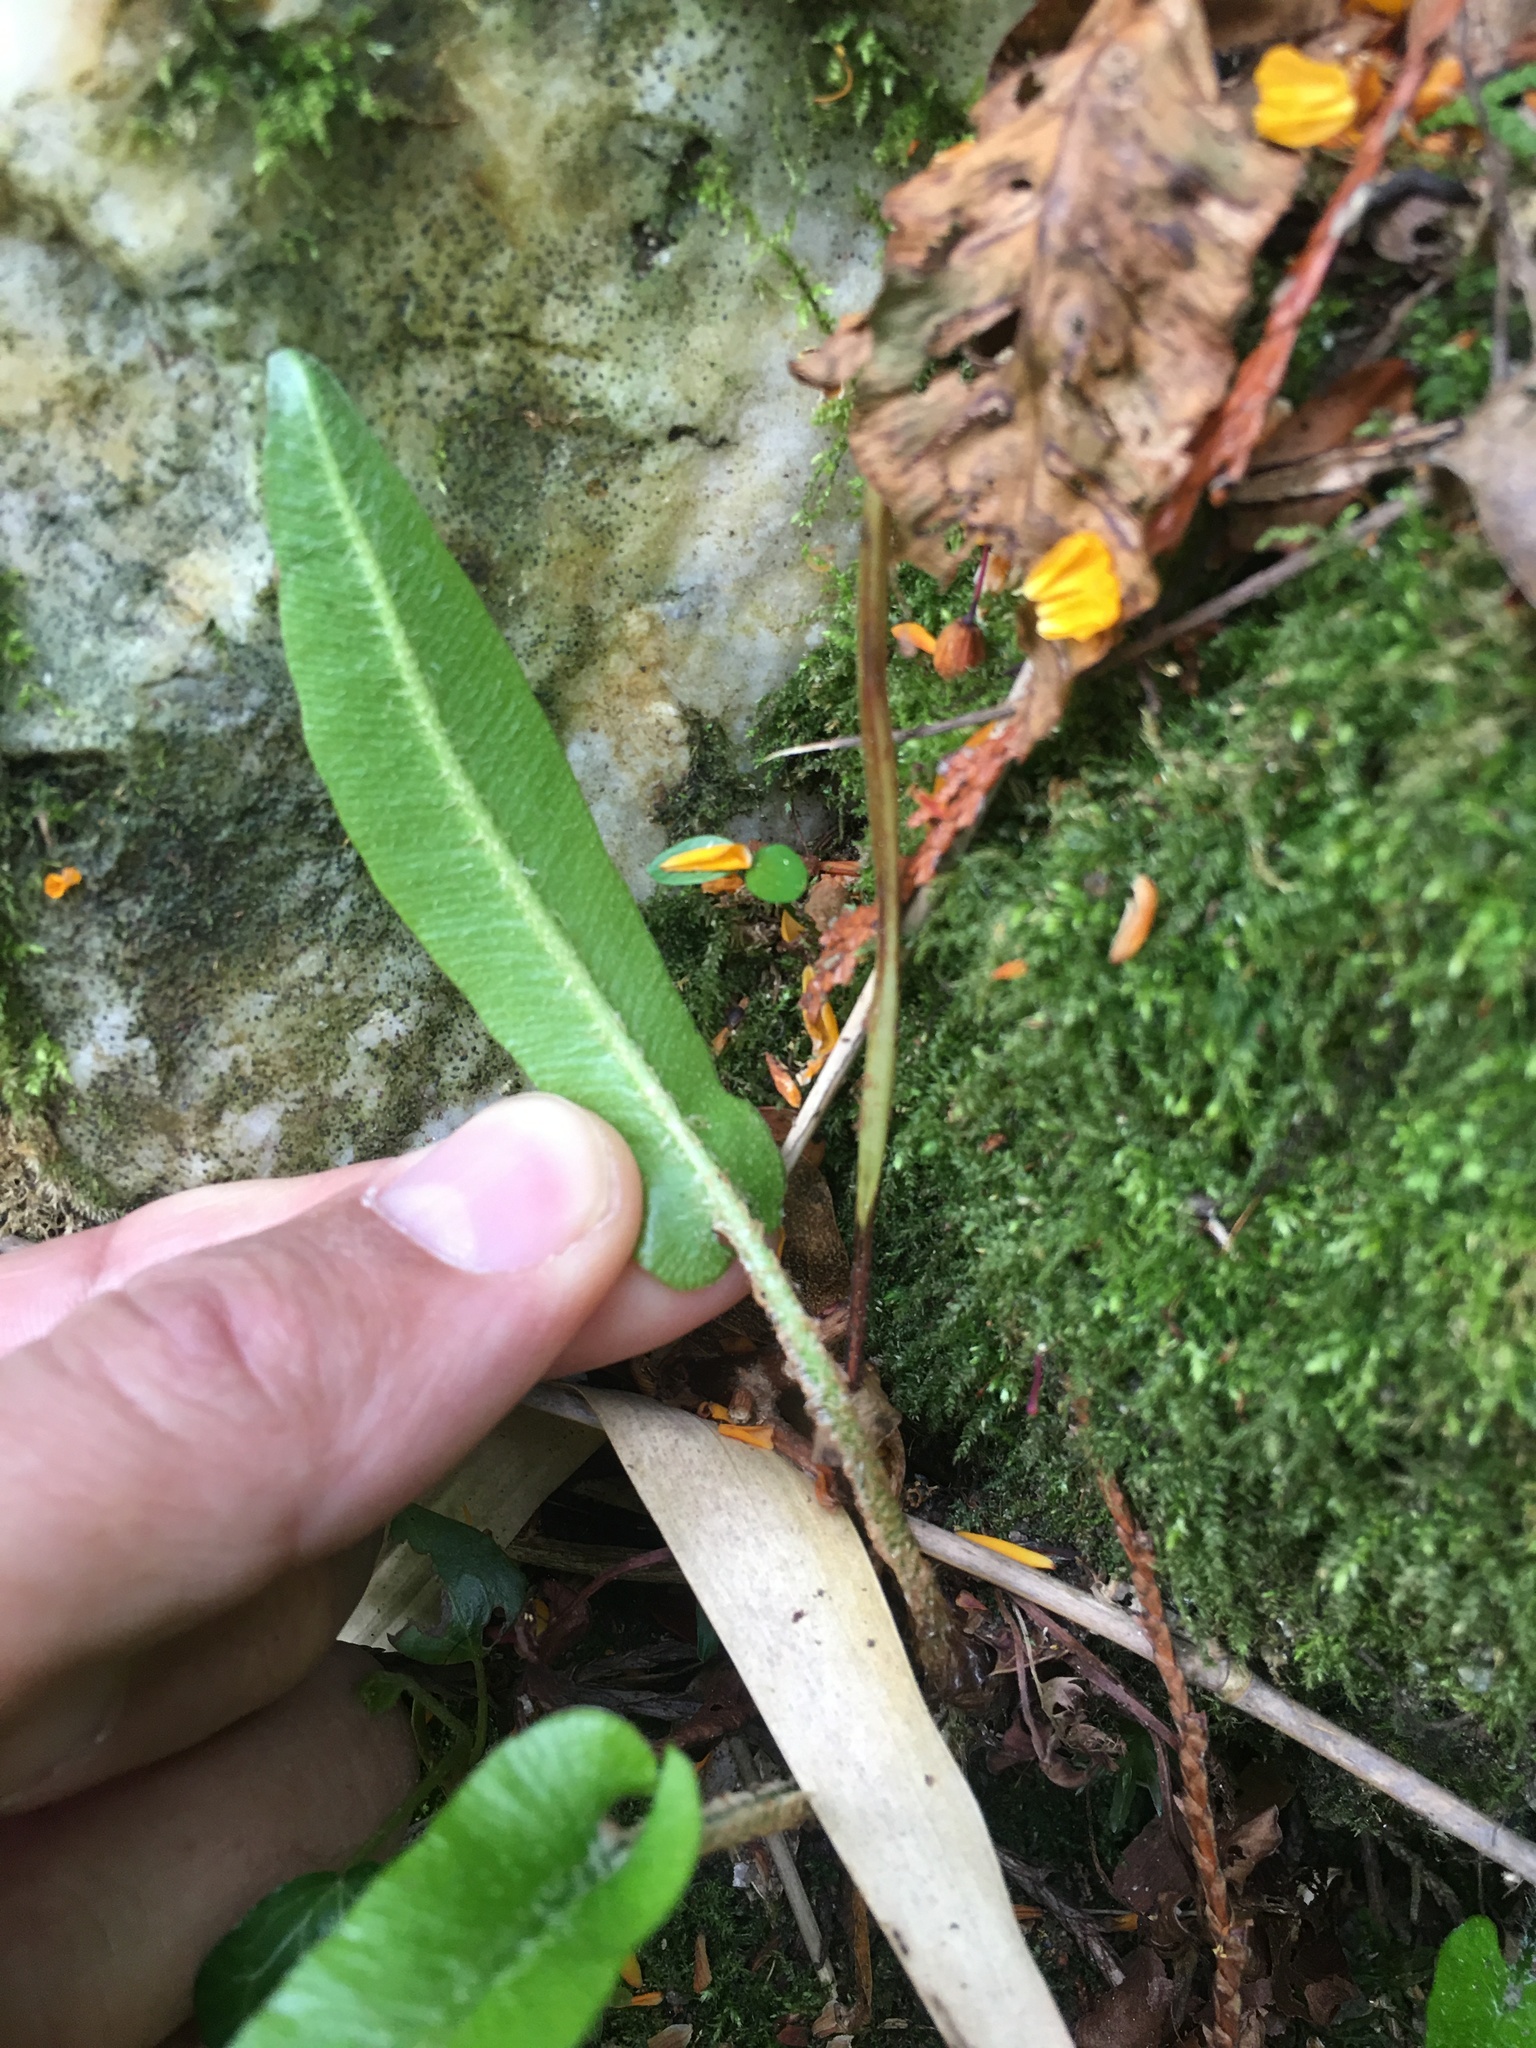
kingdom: Plantae
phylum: Tracheophyta
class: Polypodiopsida
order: Polypodiales
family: Aspleniaceae
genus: Asplenium
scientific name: Asplenium scolopendrium
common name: Hart's-tongue fern
